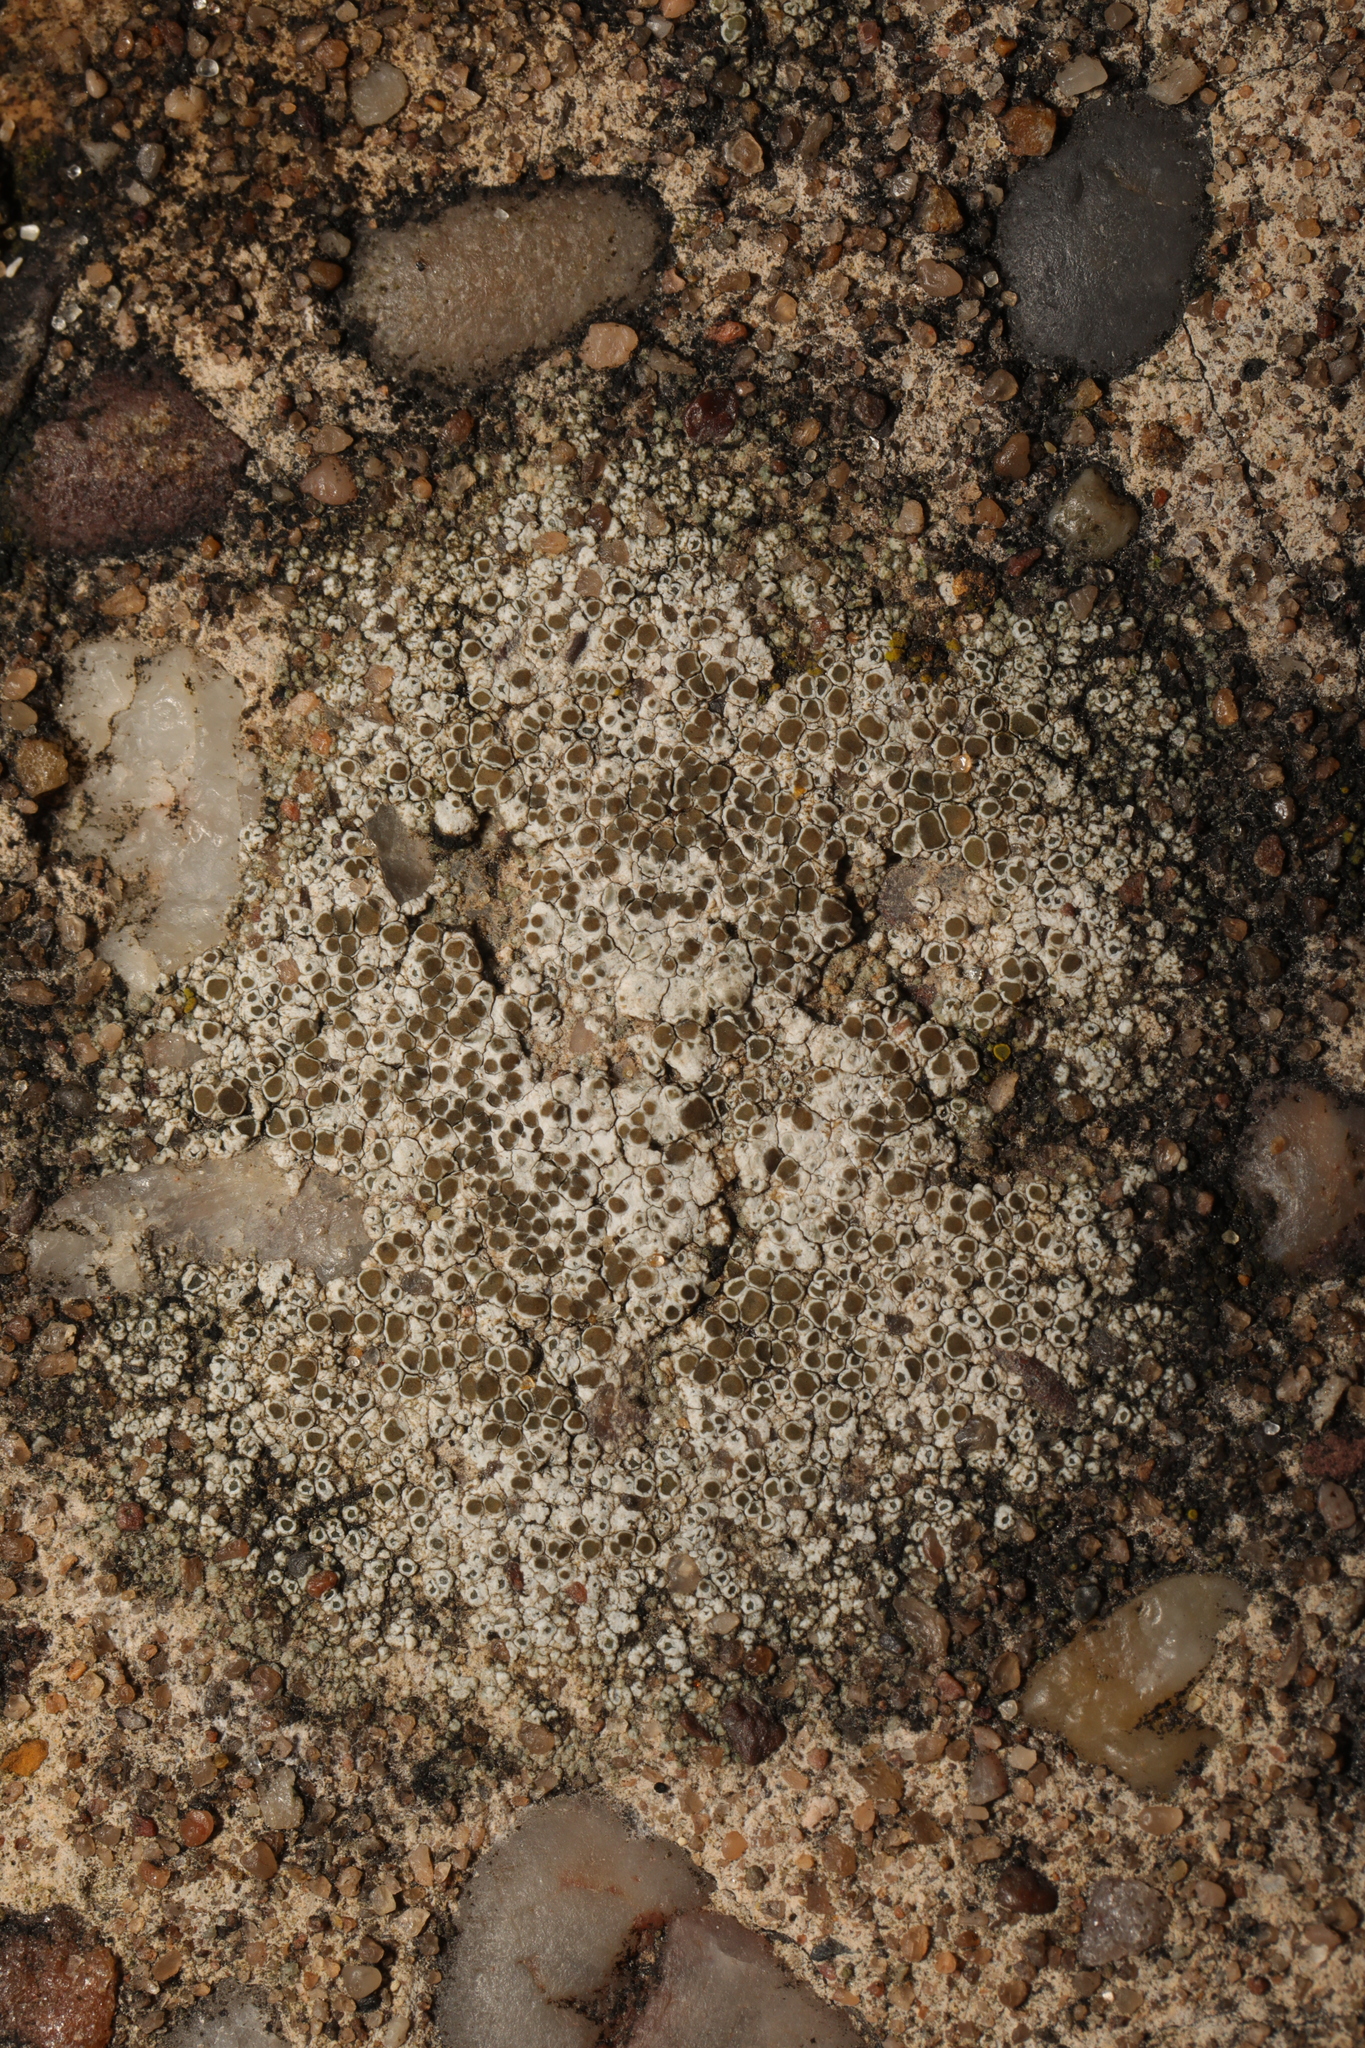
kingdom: Fungi
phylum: Ascomycota
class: Lecanoromycetes
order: Lecanorales
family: Lecanoraceae
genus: Polyozosia
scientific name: Polyozosia albescens
